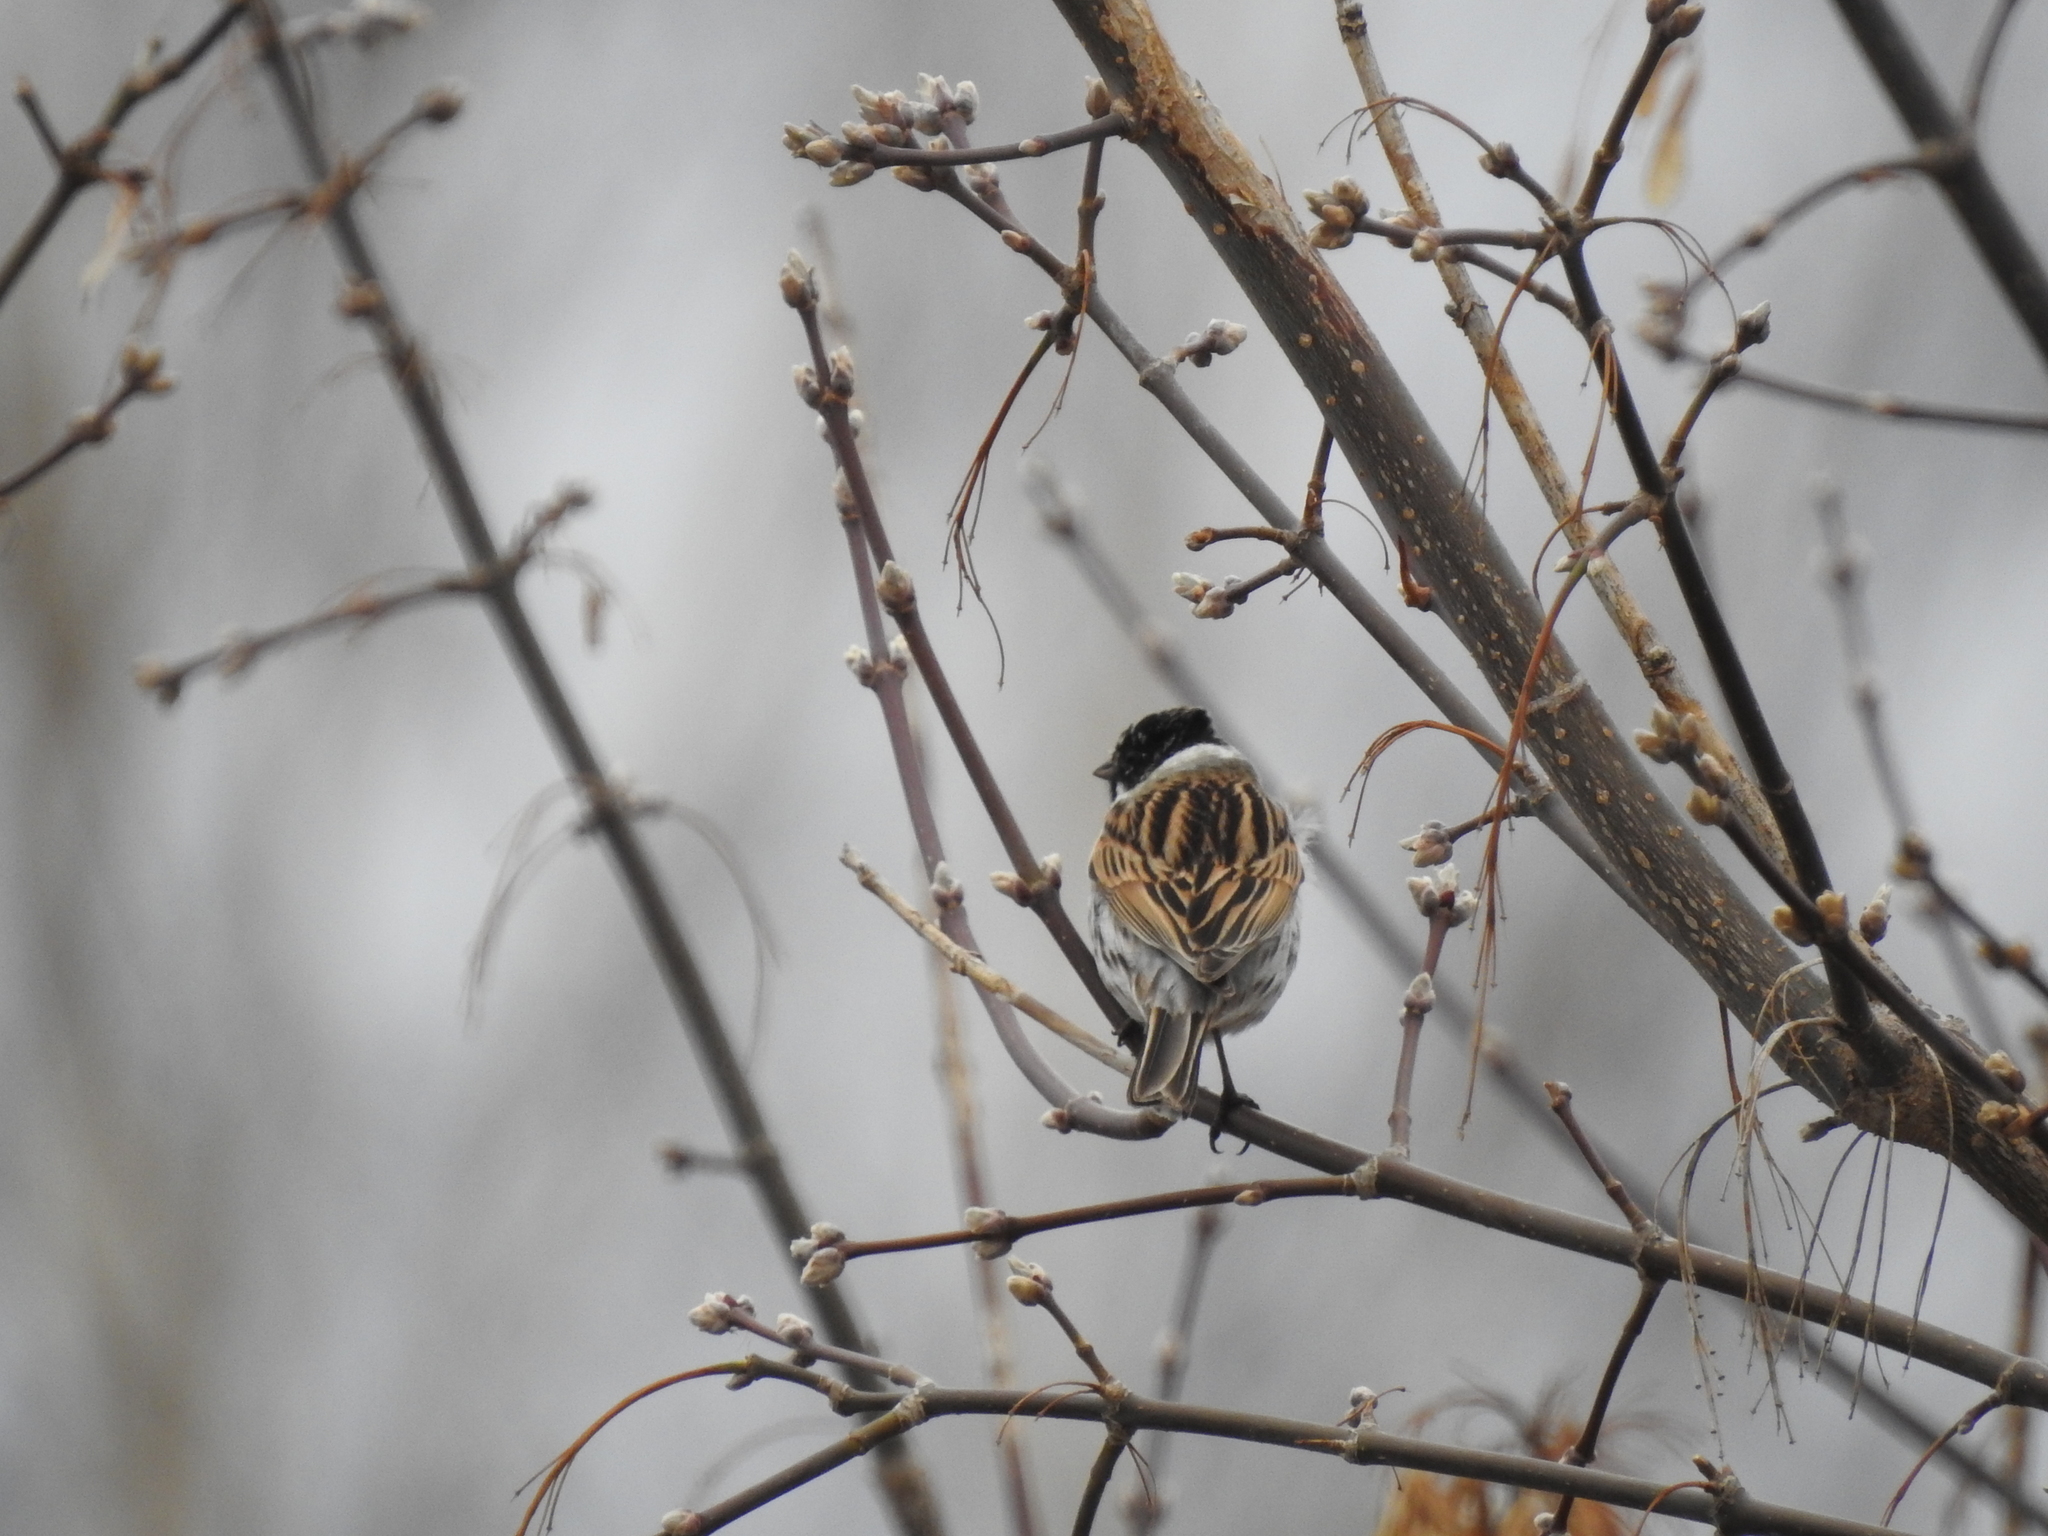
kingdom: Animalia
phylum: Chordata
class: Aves
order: Passeriformes
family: Emberizidae
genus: Emberiza
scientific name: Emberiza schoeniclus
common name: Reed bunting
